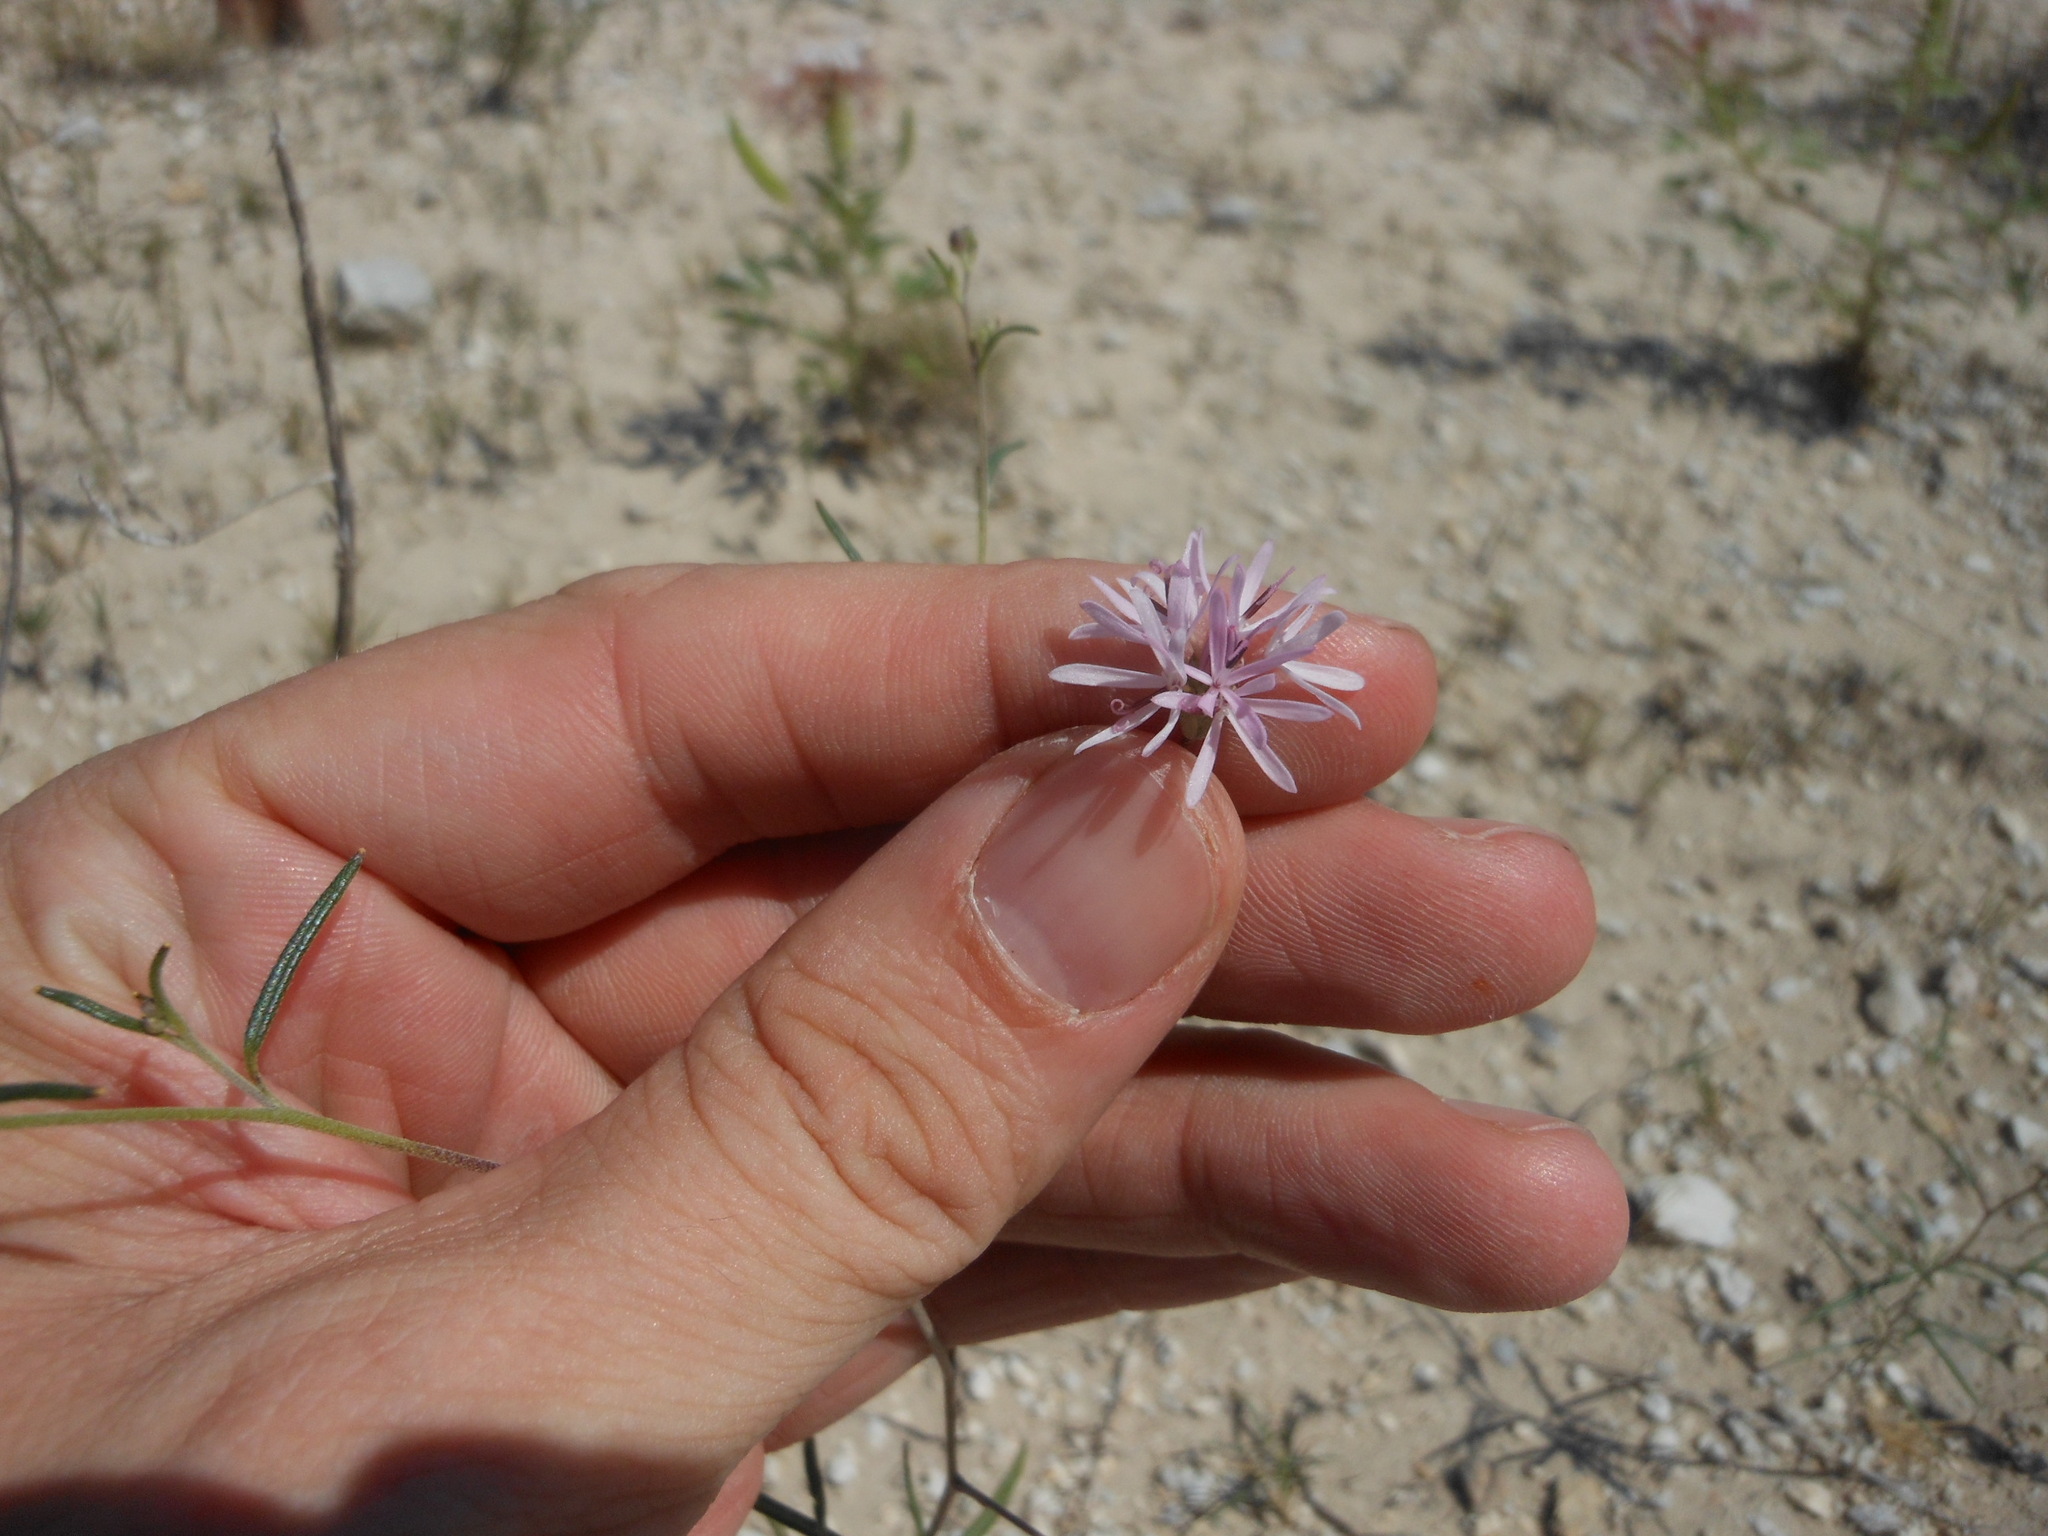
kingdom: Plantae
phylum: Tracheophyta
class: Magnoliopsida
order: Asterales
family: Asteraceae
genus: Palafoxia
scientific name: Palafoxia callosa
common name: Small palafox
